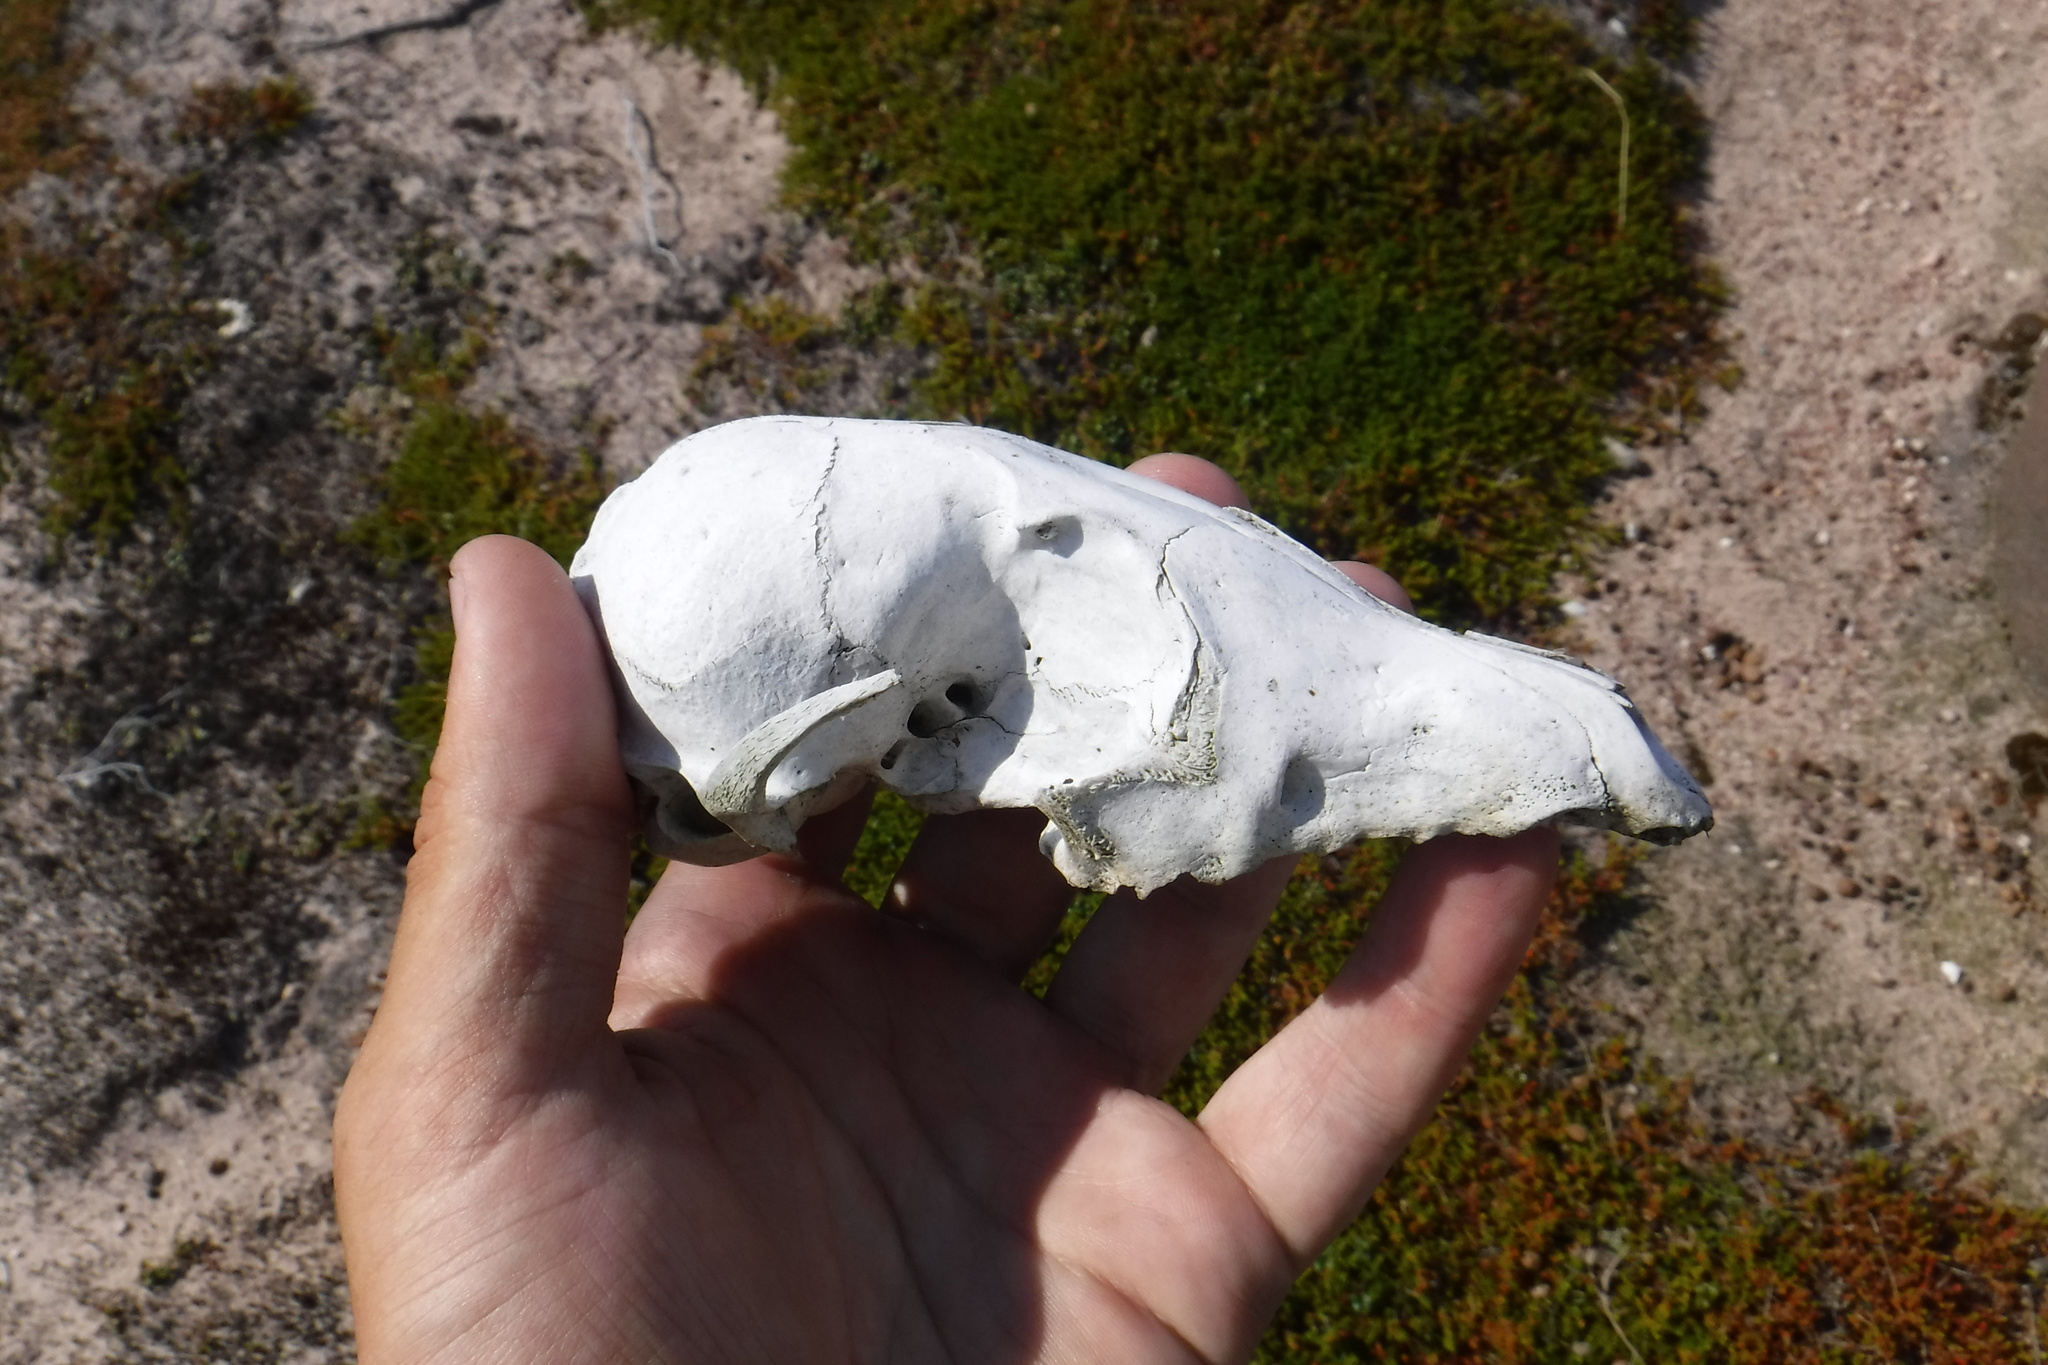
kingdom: Animalia
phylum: Chordata
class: Mammalia
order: Carnivora
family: Canidae
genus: Vulpes
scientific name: Vulpes lagopus
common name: Arctic fox
